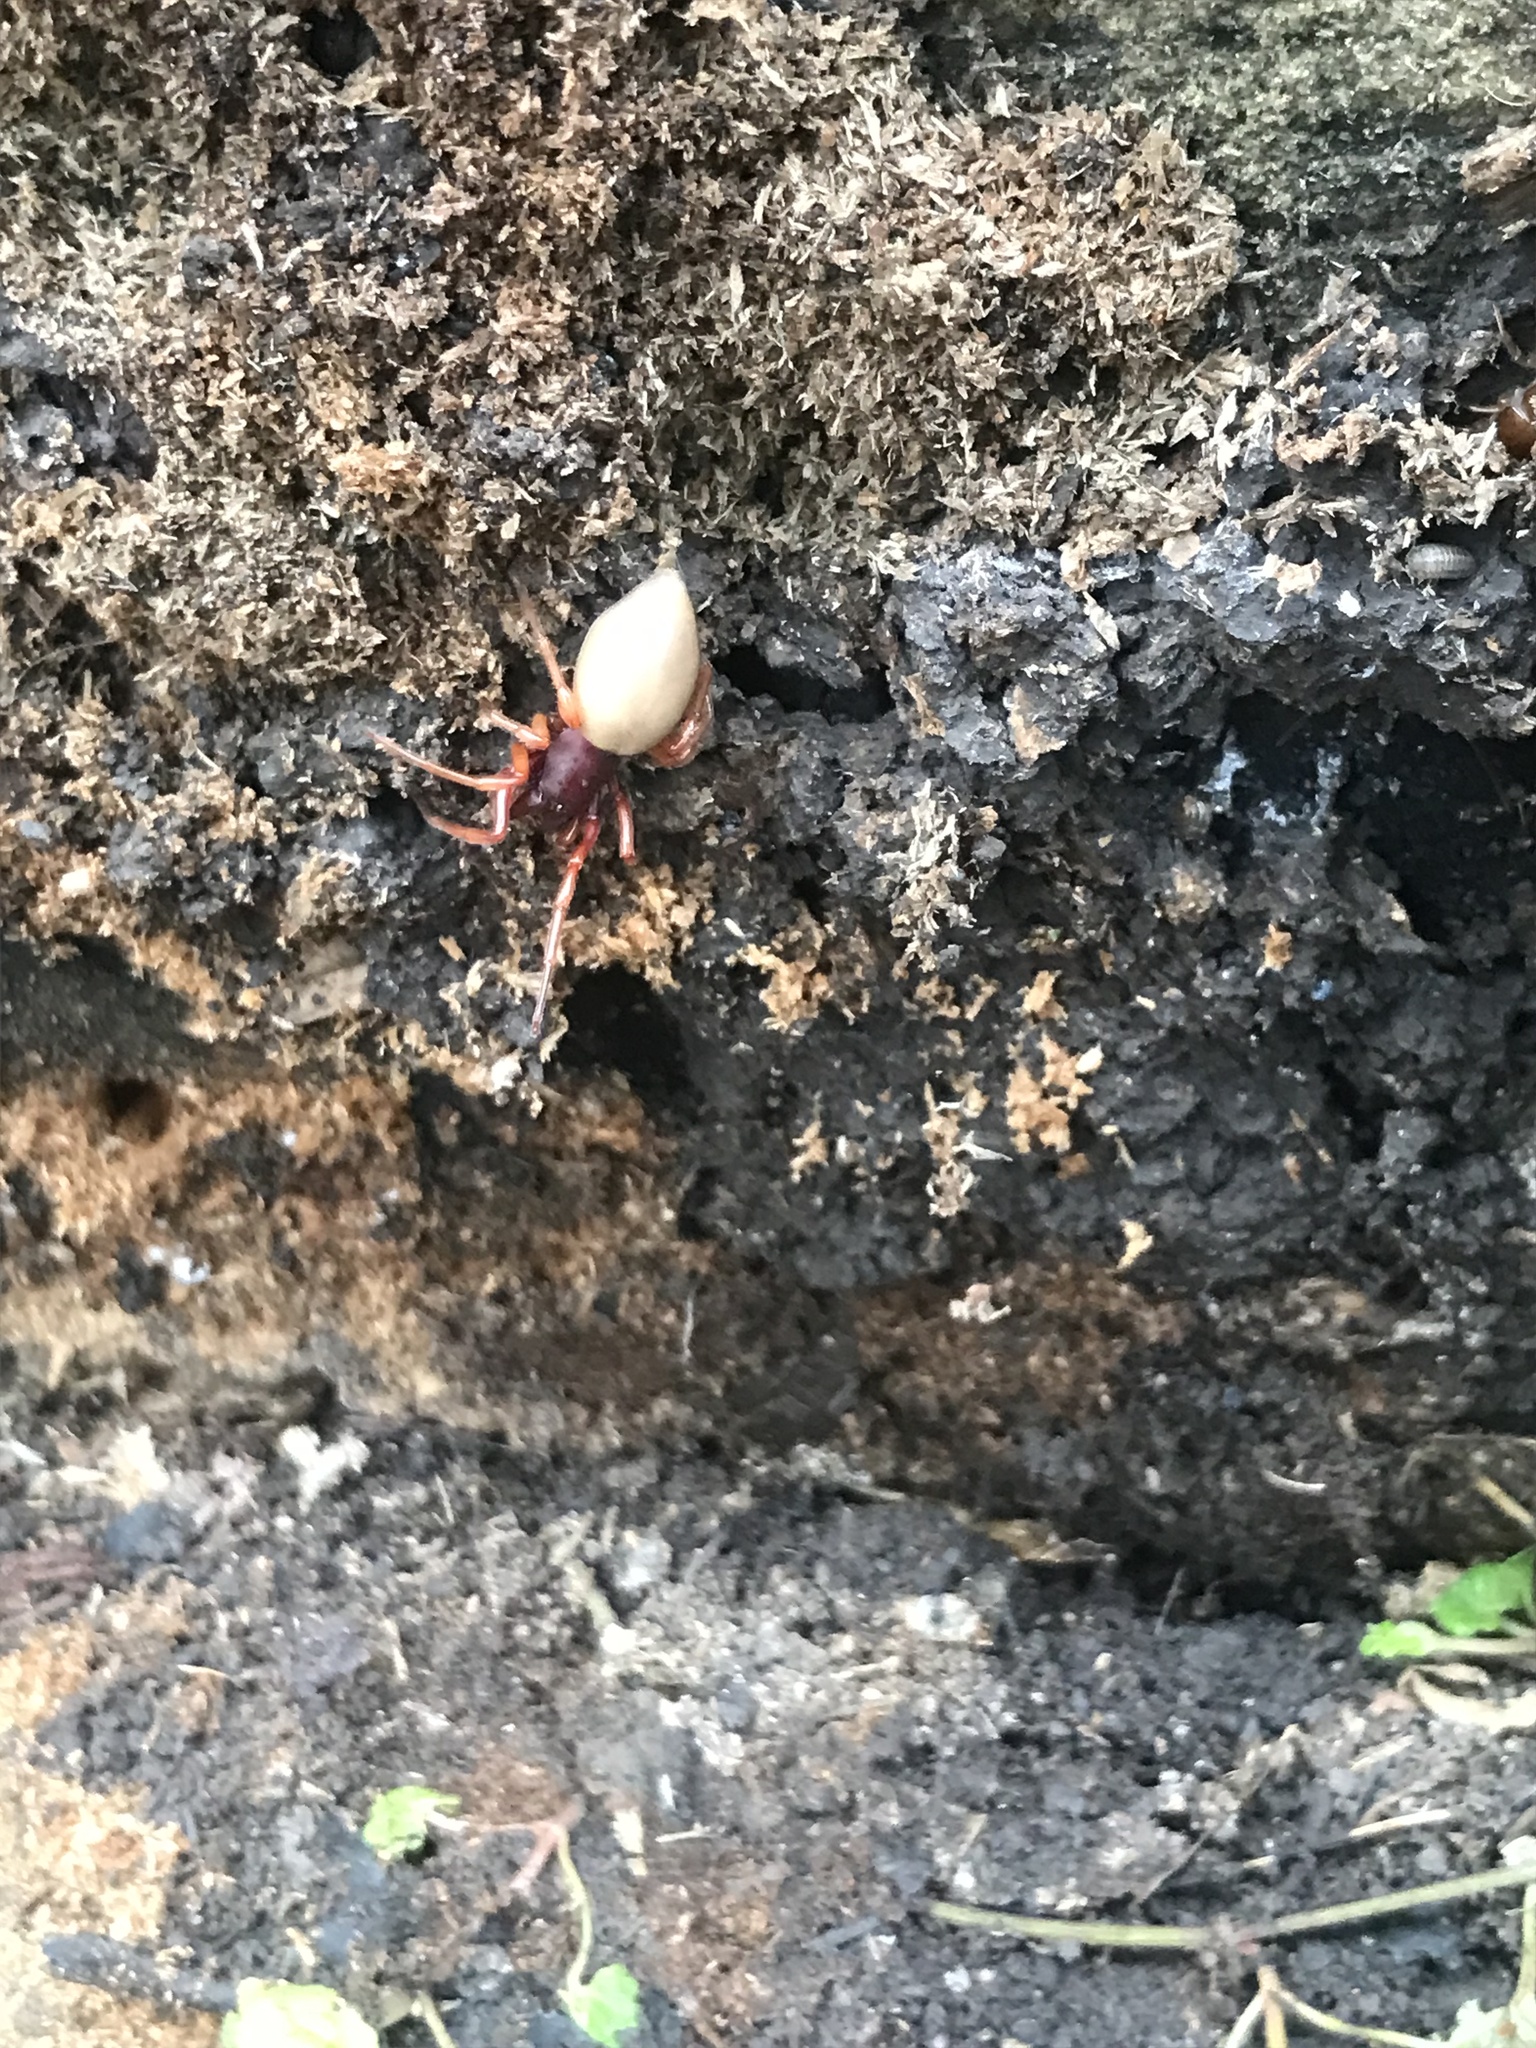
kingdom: Animalia
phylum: Arthropoda
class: Arachnida
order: Araneae
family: Dysderidae
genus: Dysdera
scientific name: Dysdera crocata
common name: Woodlouse spider
